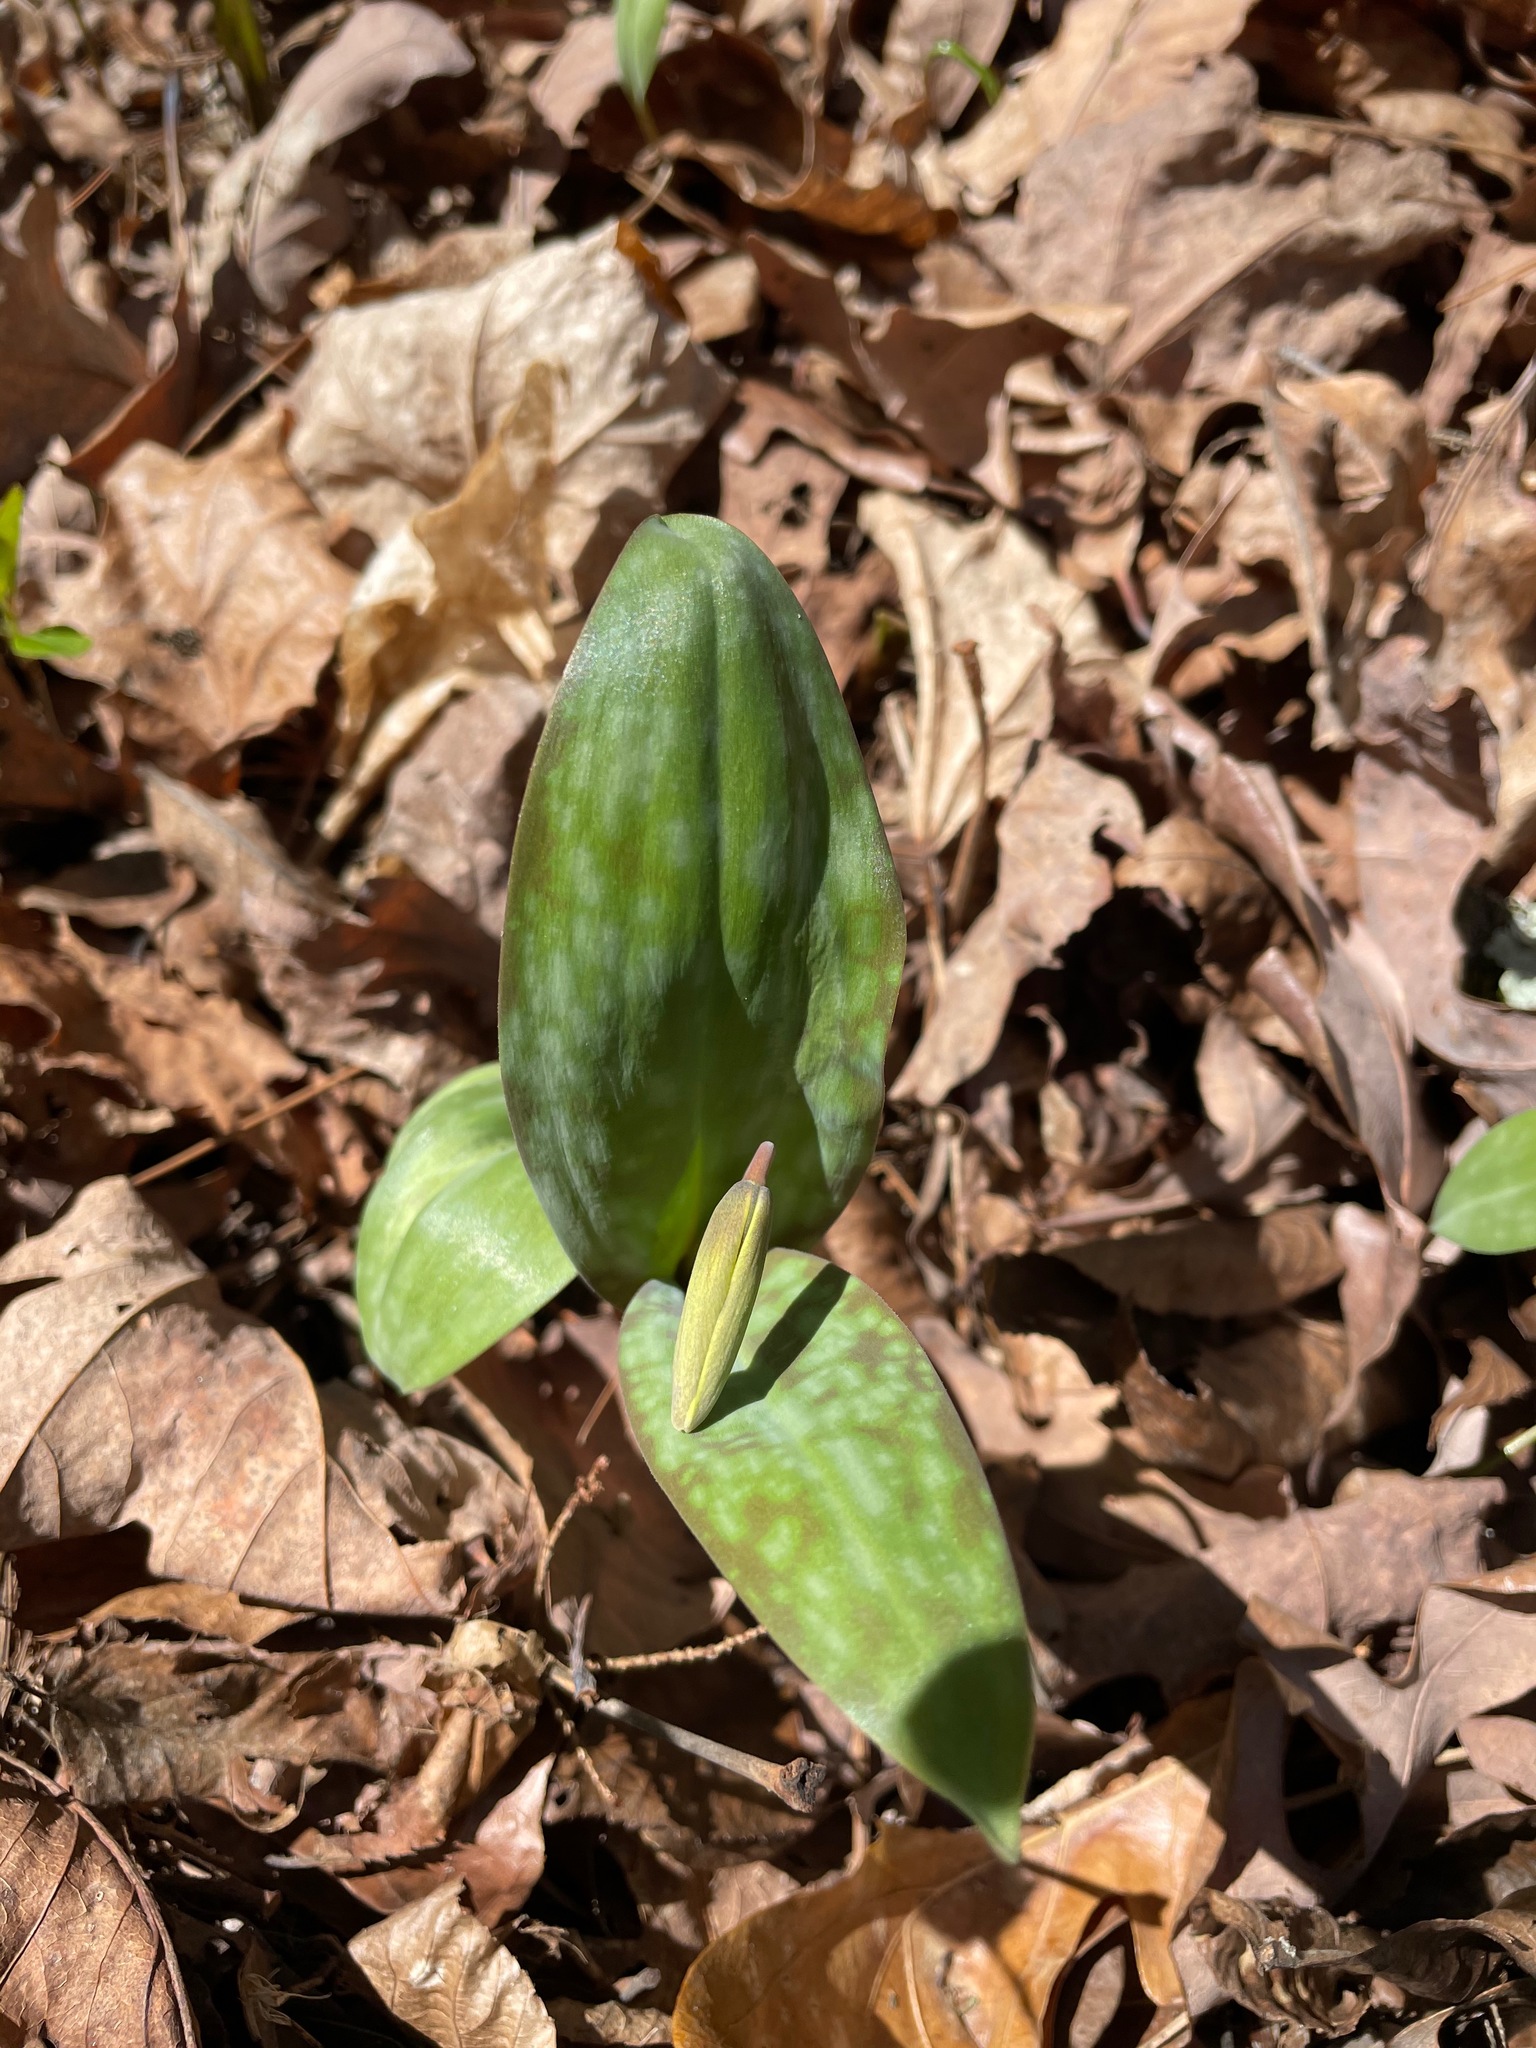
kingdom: Plantae
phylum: Tracheophyta
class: Liliopsida
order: Liliales
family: Liliaceae
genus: Erythronium
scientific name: Erythronium americanum
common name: Yellow adder's-tongue
